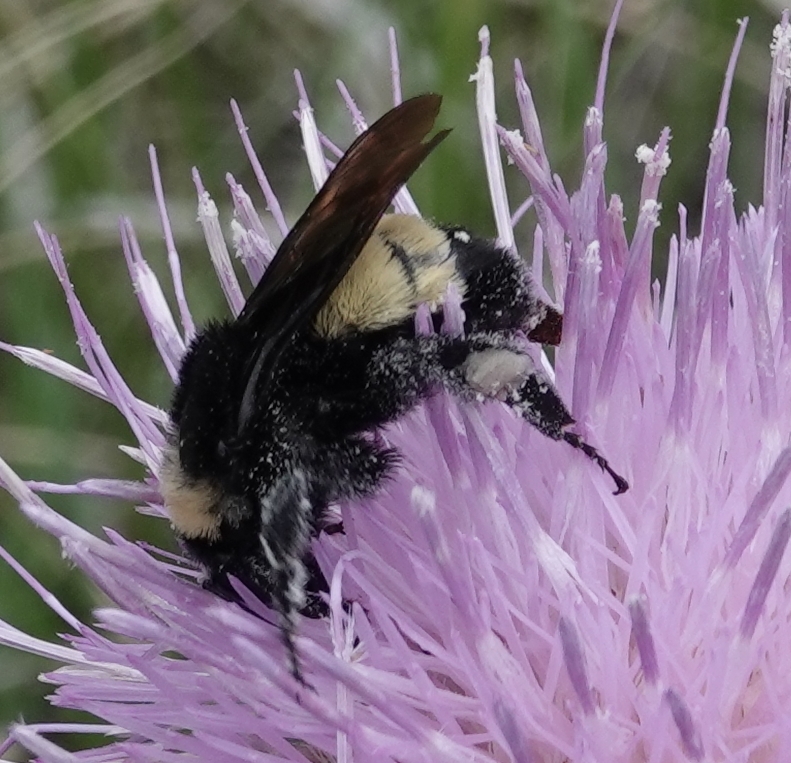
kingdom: Animalia
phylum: Arthropoda
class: Insecta
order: Hymenoptera
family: Apidae
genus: Bombus
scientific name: Bombus pensylvanicus
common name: Bumble bee
